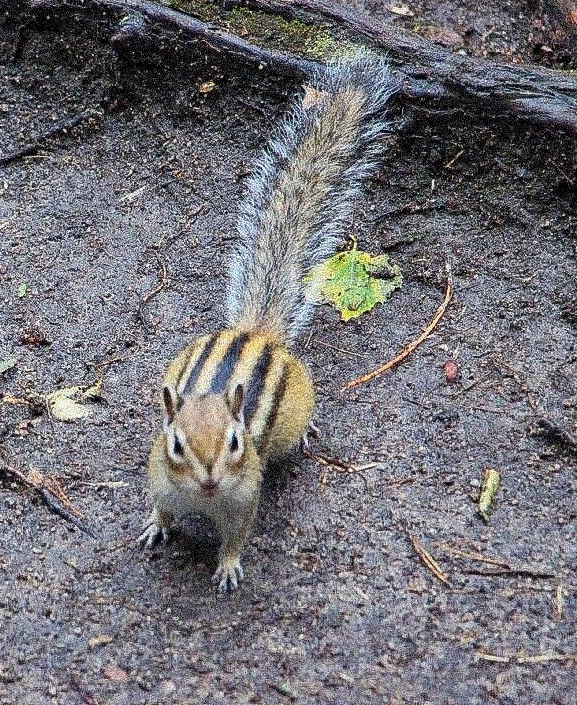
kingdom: Animalia
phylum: Chordata
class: Mammalia
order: Rodentia
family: Sciuridae
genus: Tamias
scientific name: Tamias sibiricus
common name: Siberian chipmunk
